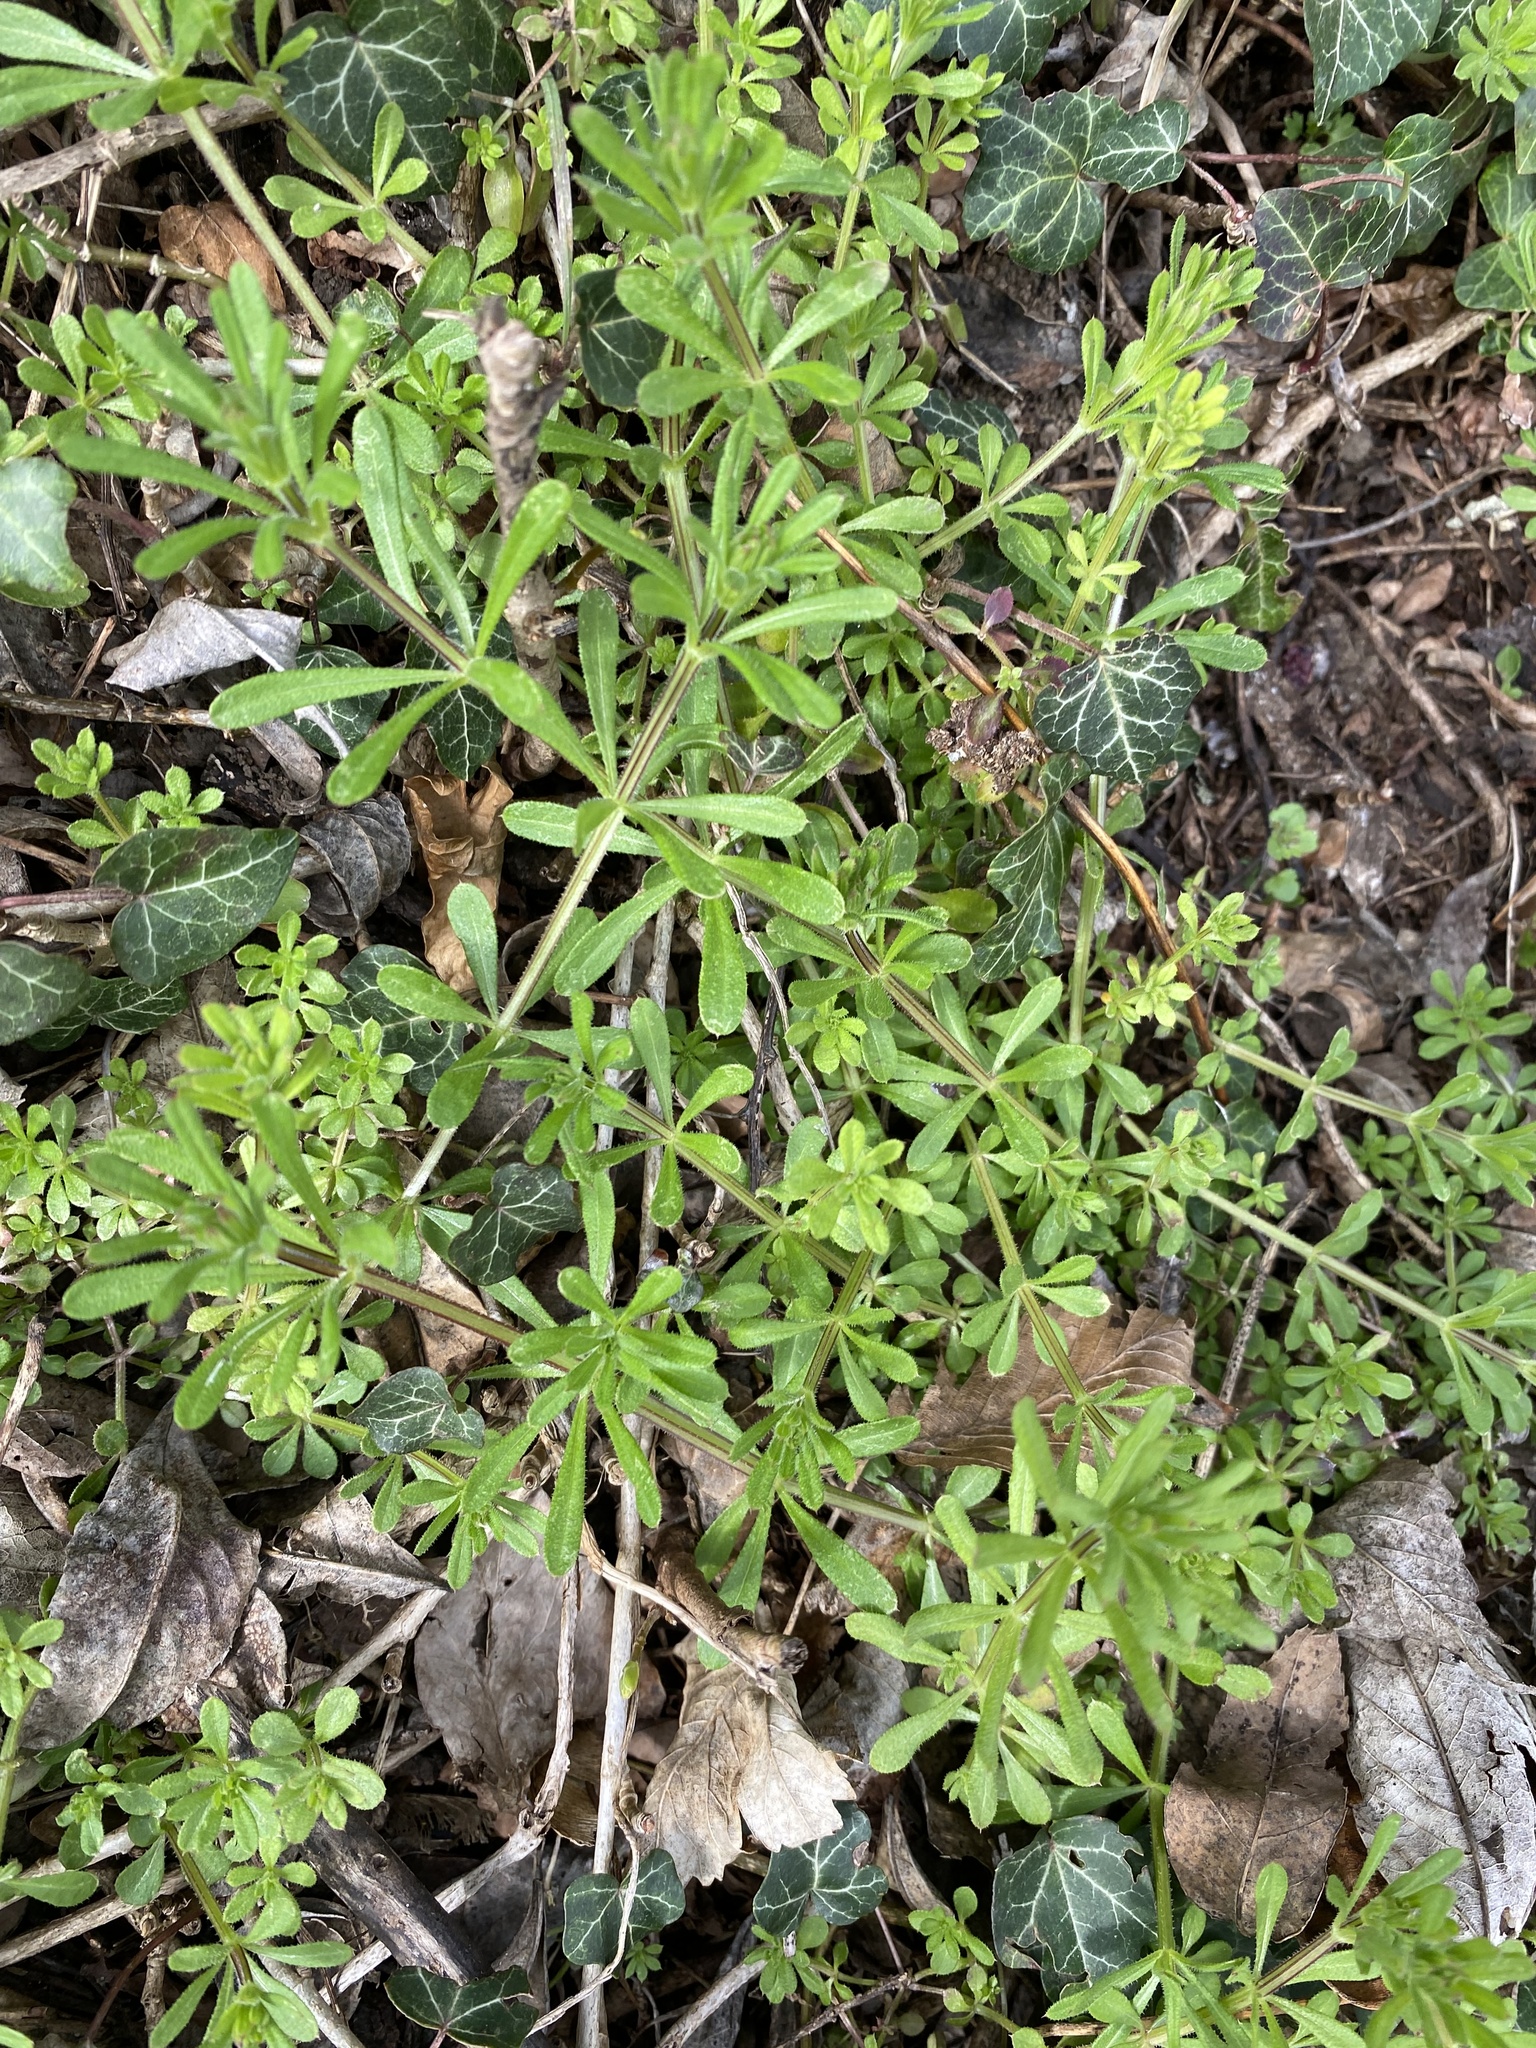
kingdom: Plantae
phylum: Tracheophyta
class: Magnoliopsida
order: Gentianales
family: Rubiaceae
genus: Galium
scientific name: Galium aparine
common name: Cleavers
